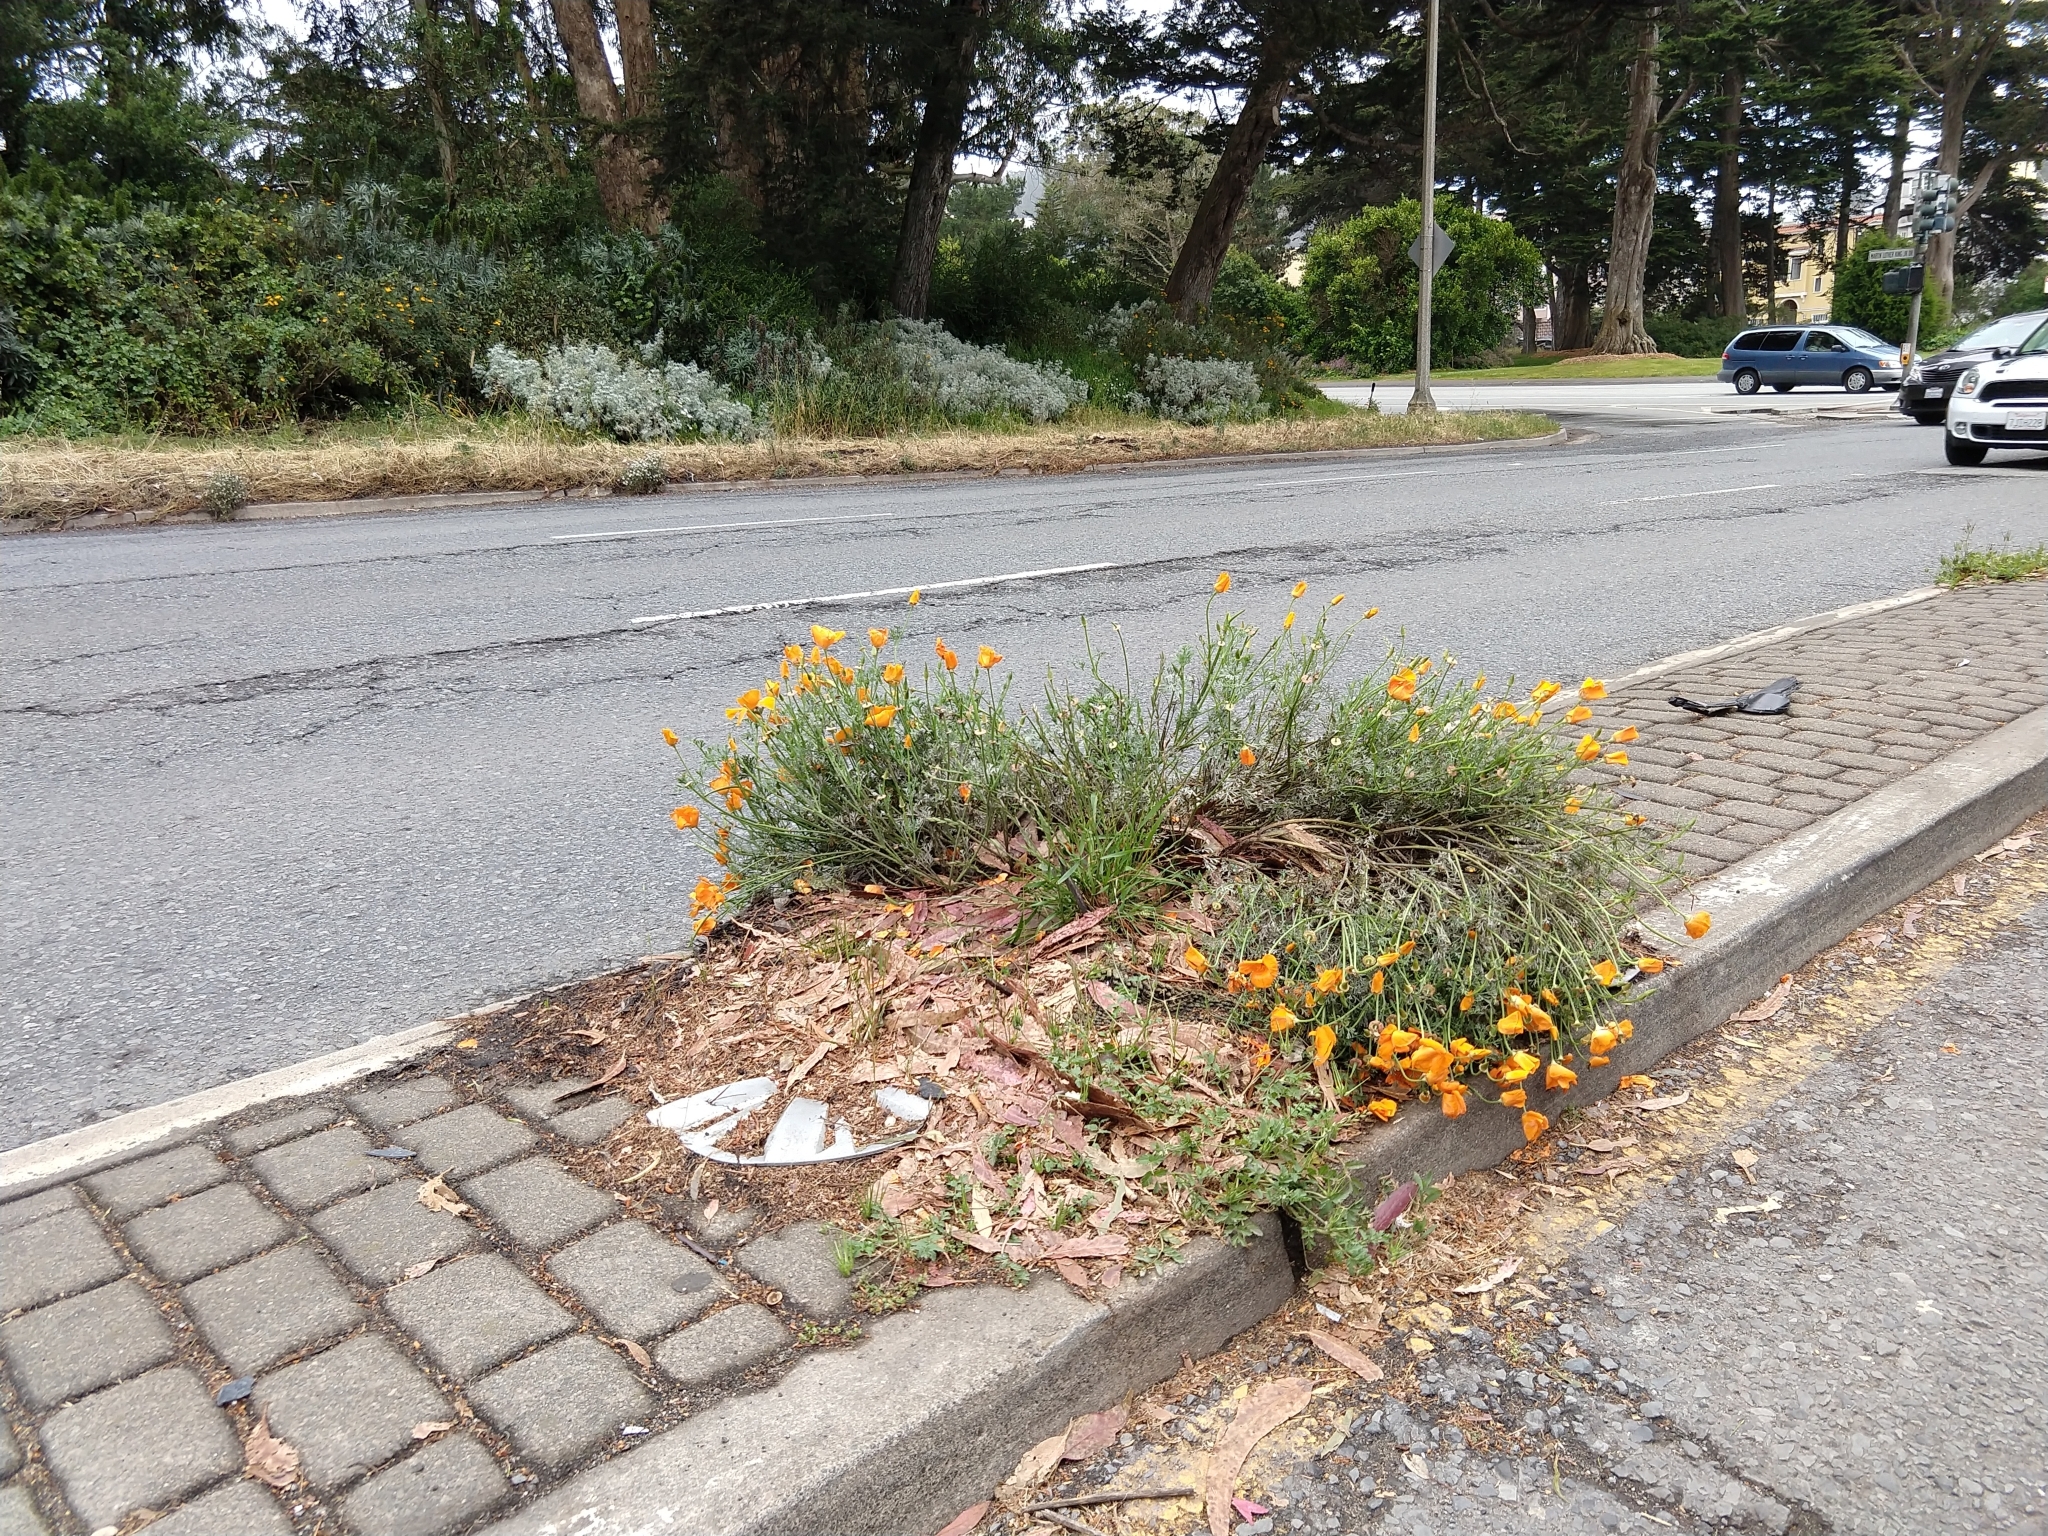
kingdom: Plantae
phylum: Tracheophyta
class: Magnoliopsida
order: Ranunculales
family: Papaveraceae
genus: Eschscholzia
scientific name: Eschscholzia californica
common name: California poppy
